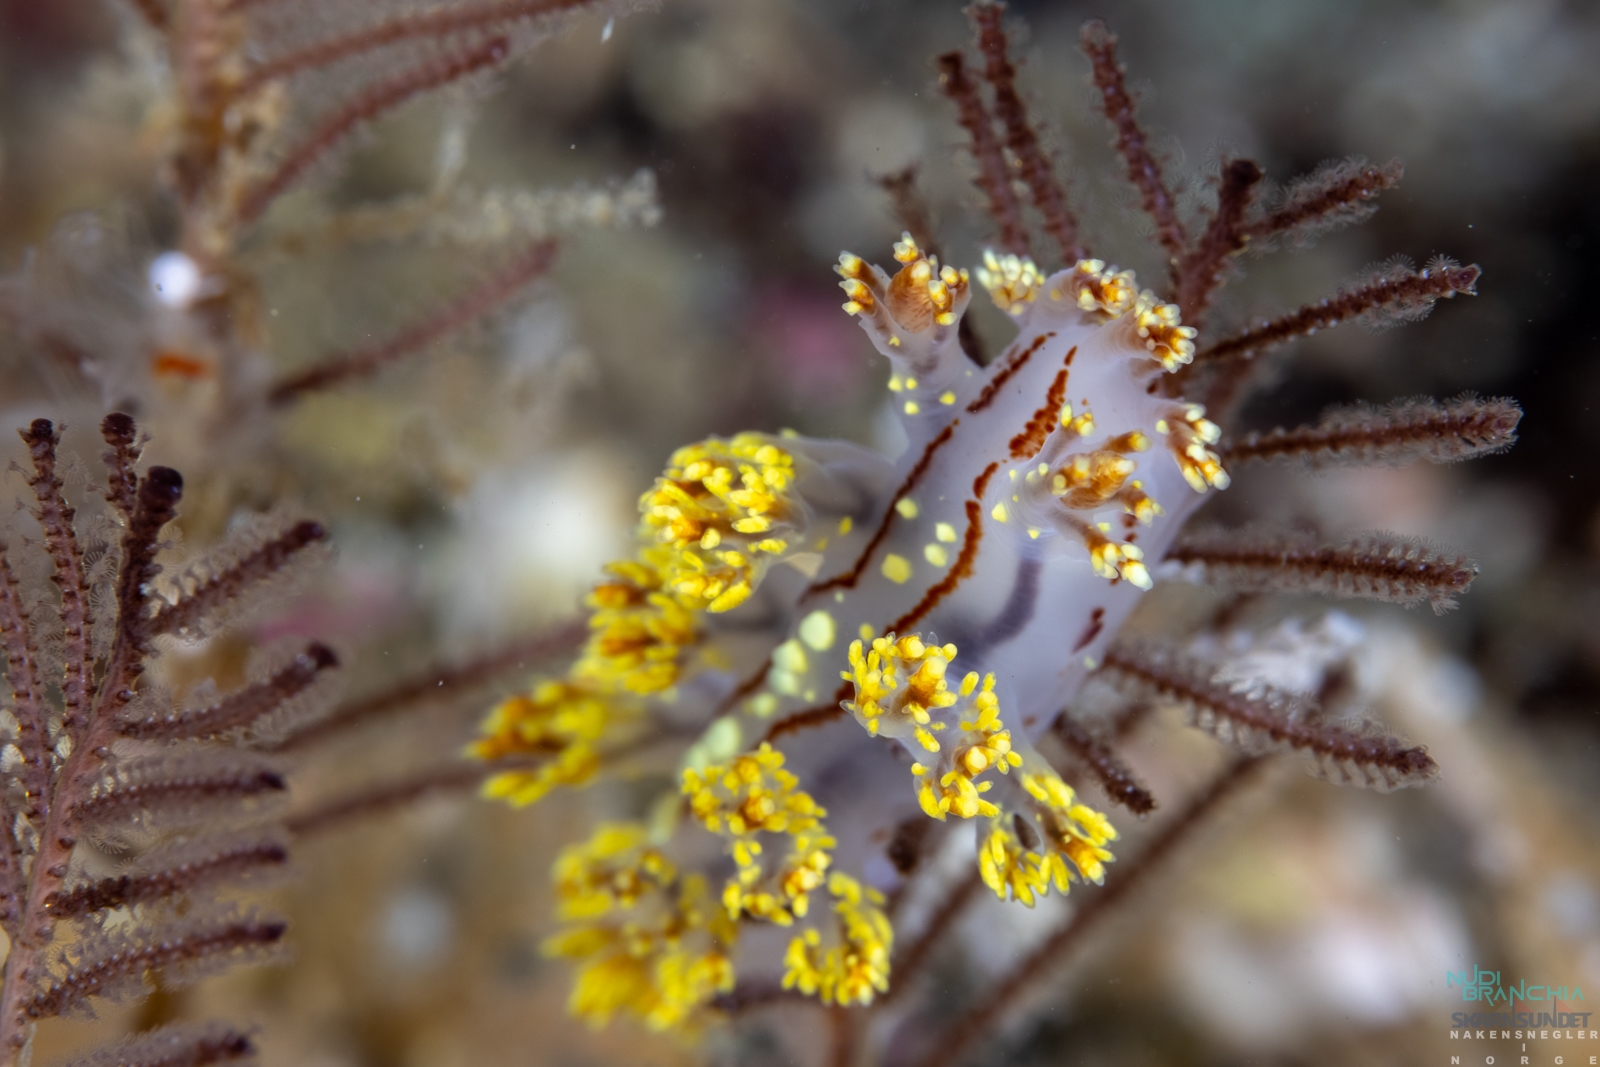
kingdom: Animalia
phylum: Mollusca
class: Gastropoda
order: Nudibranchia
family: Dendronotidae
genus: Dendronotus
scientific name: Dendronotus yrjargul
